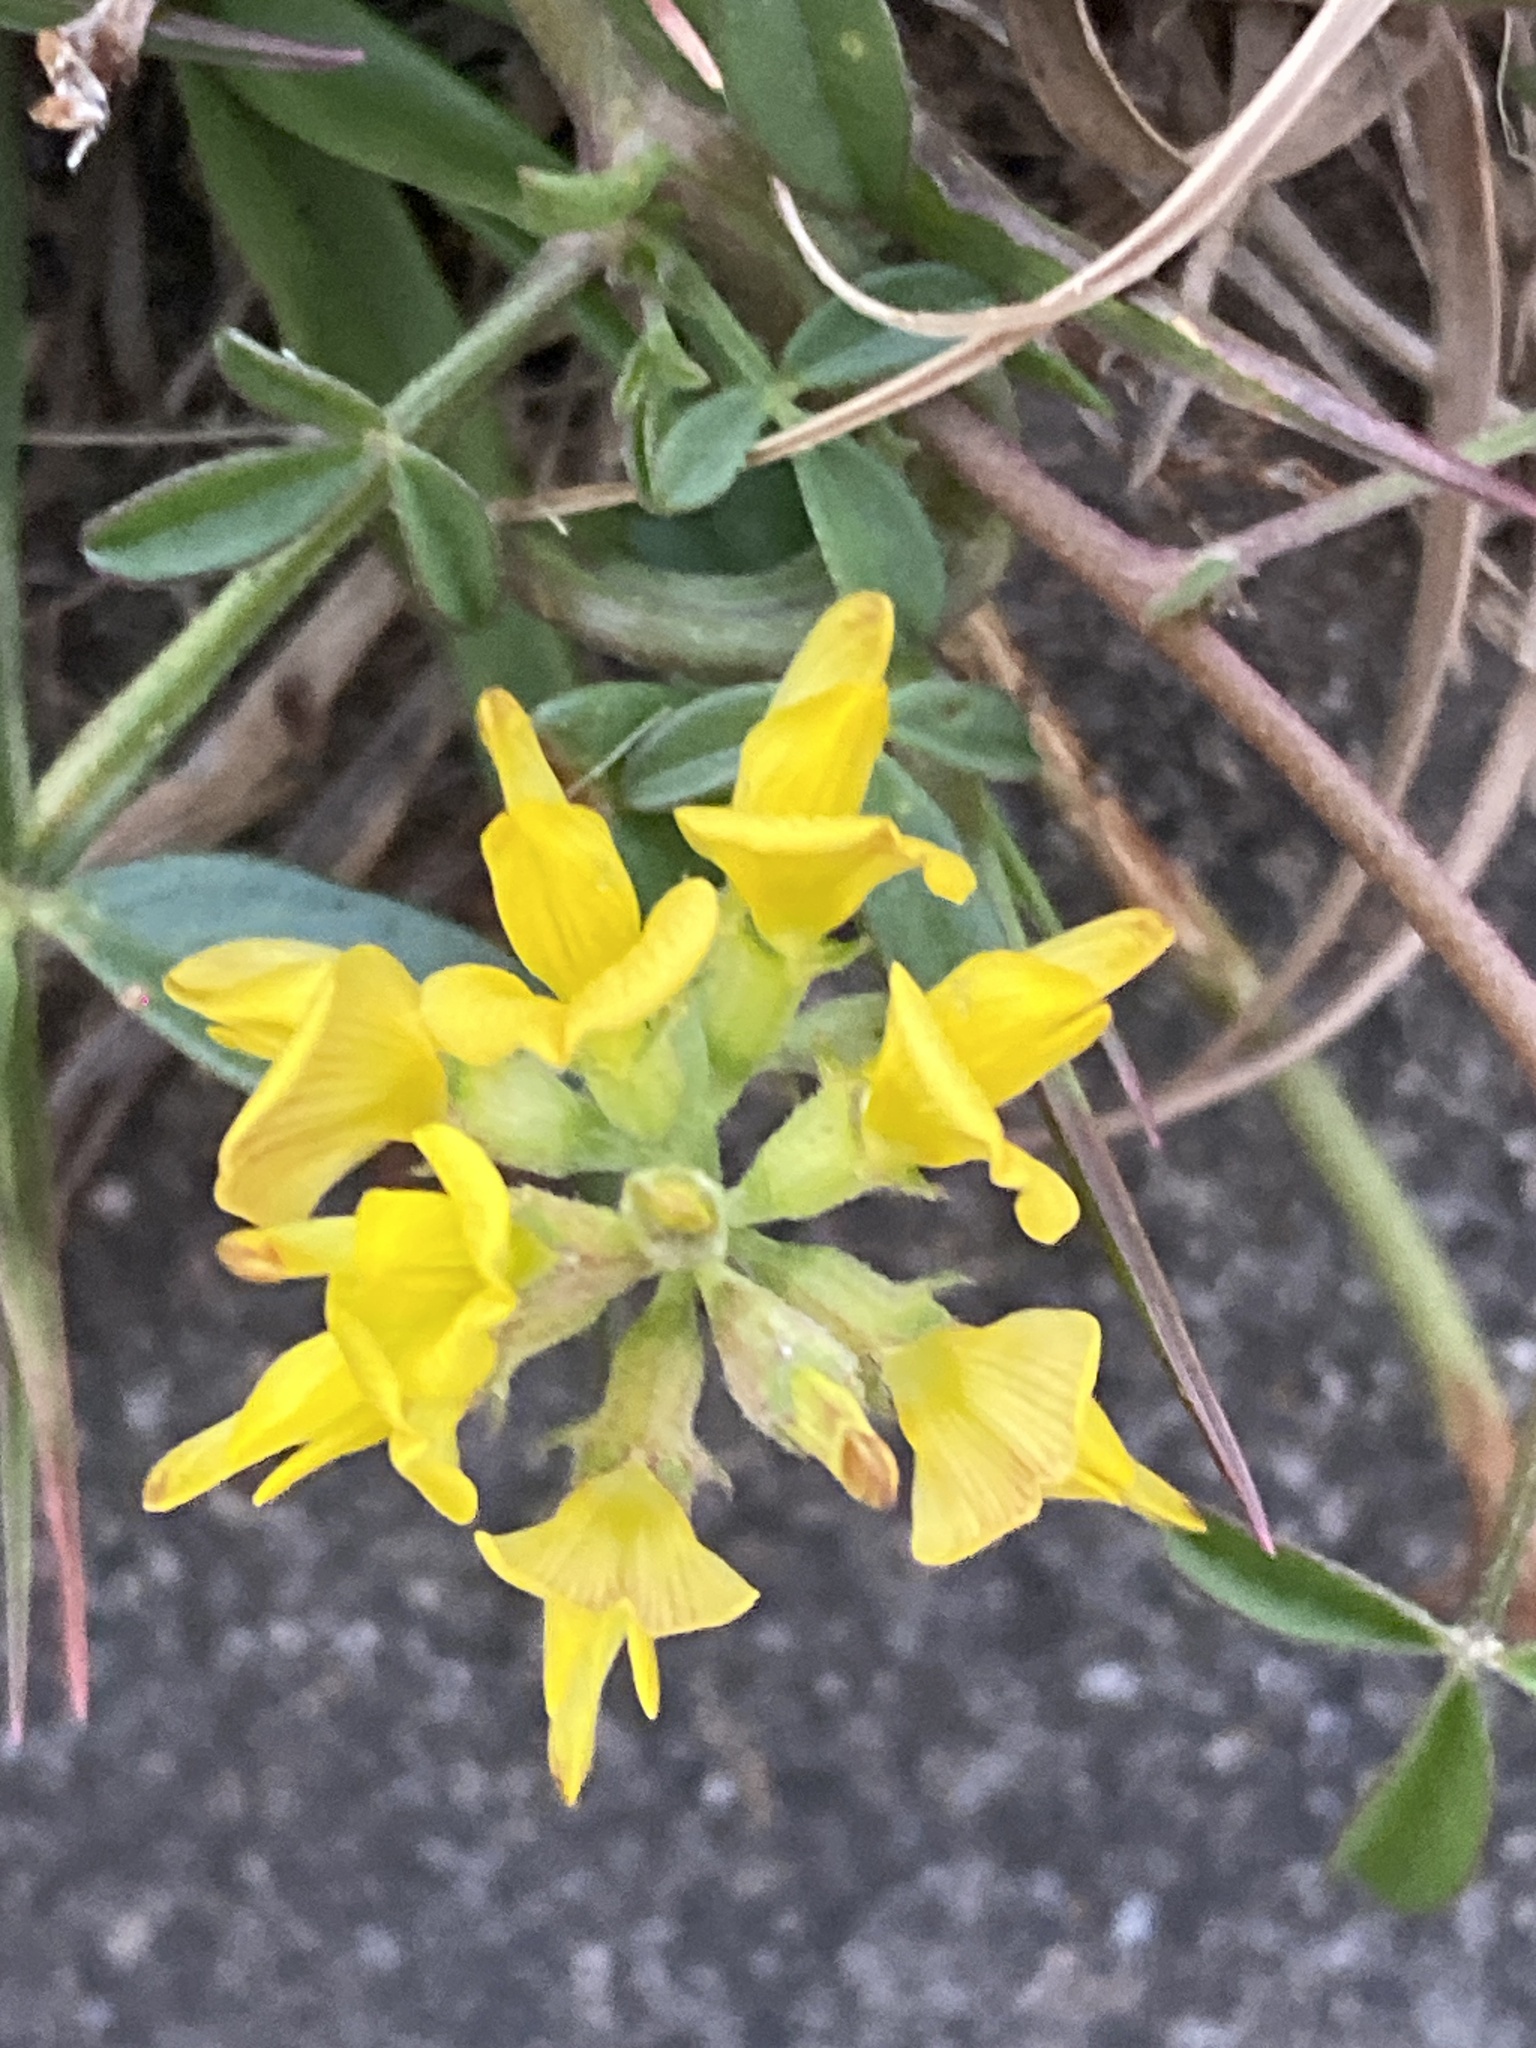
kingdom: Plantae
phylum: Tracheophyta
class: Magnoliopsida
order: Fabales
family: Fabaceae
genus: Listia
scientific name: Listia bainesii
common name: Lotononis
